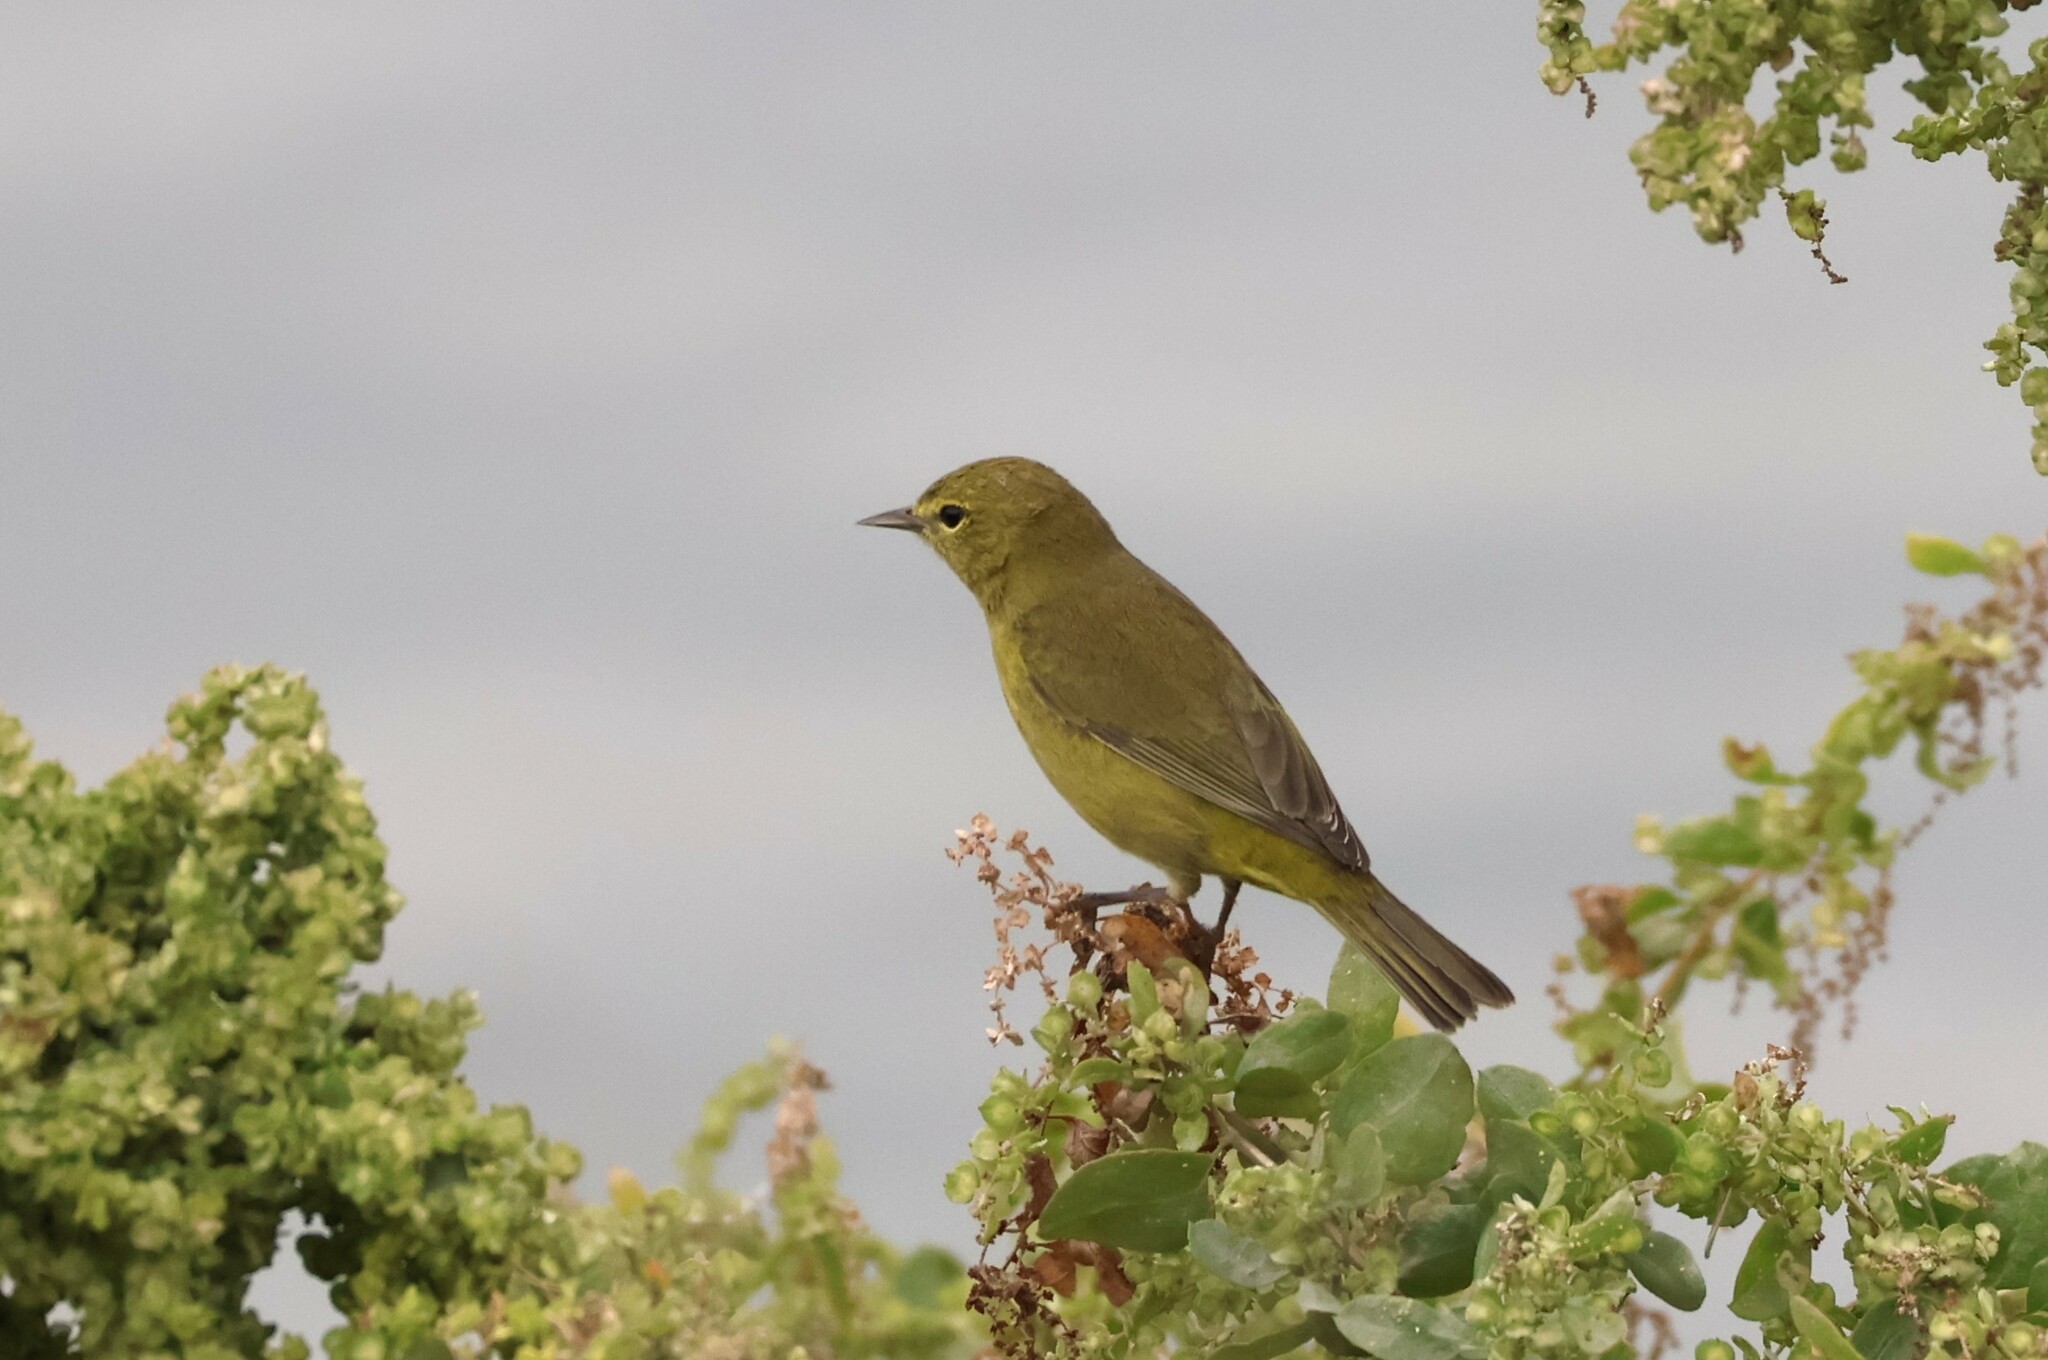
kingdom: Animalia
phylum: Chordata
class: Aves
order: Passeriformes
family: Parulidae
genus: Leiothlypis
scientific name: Leiothlypis celata
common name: Orange-crowned warbler
